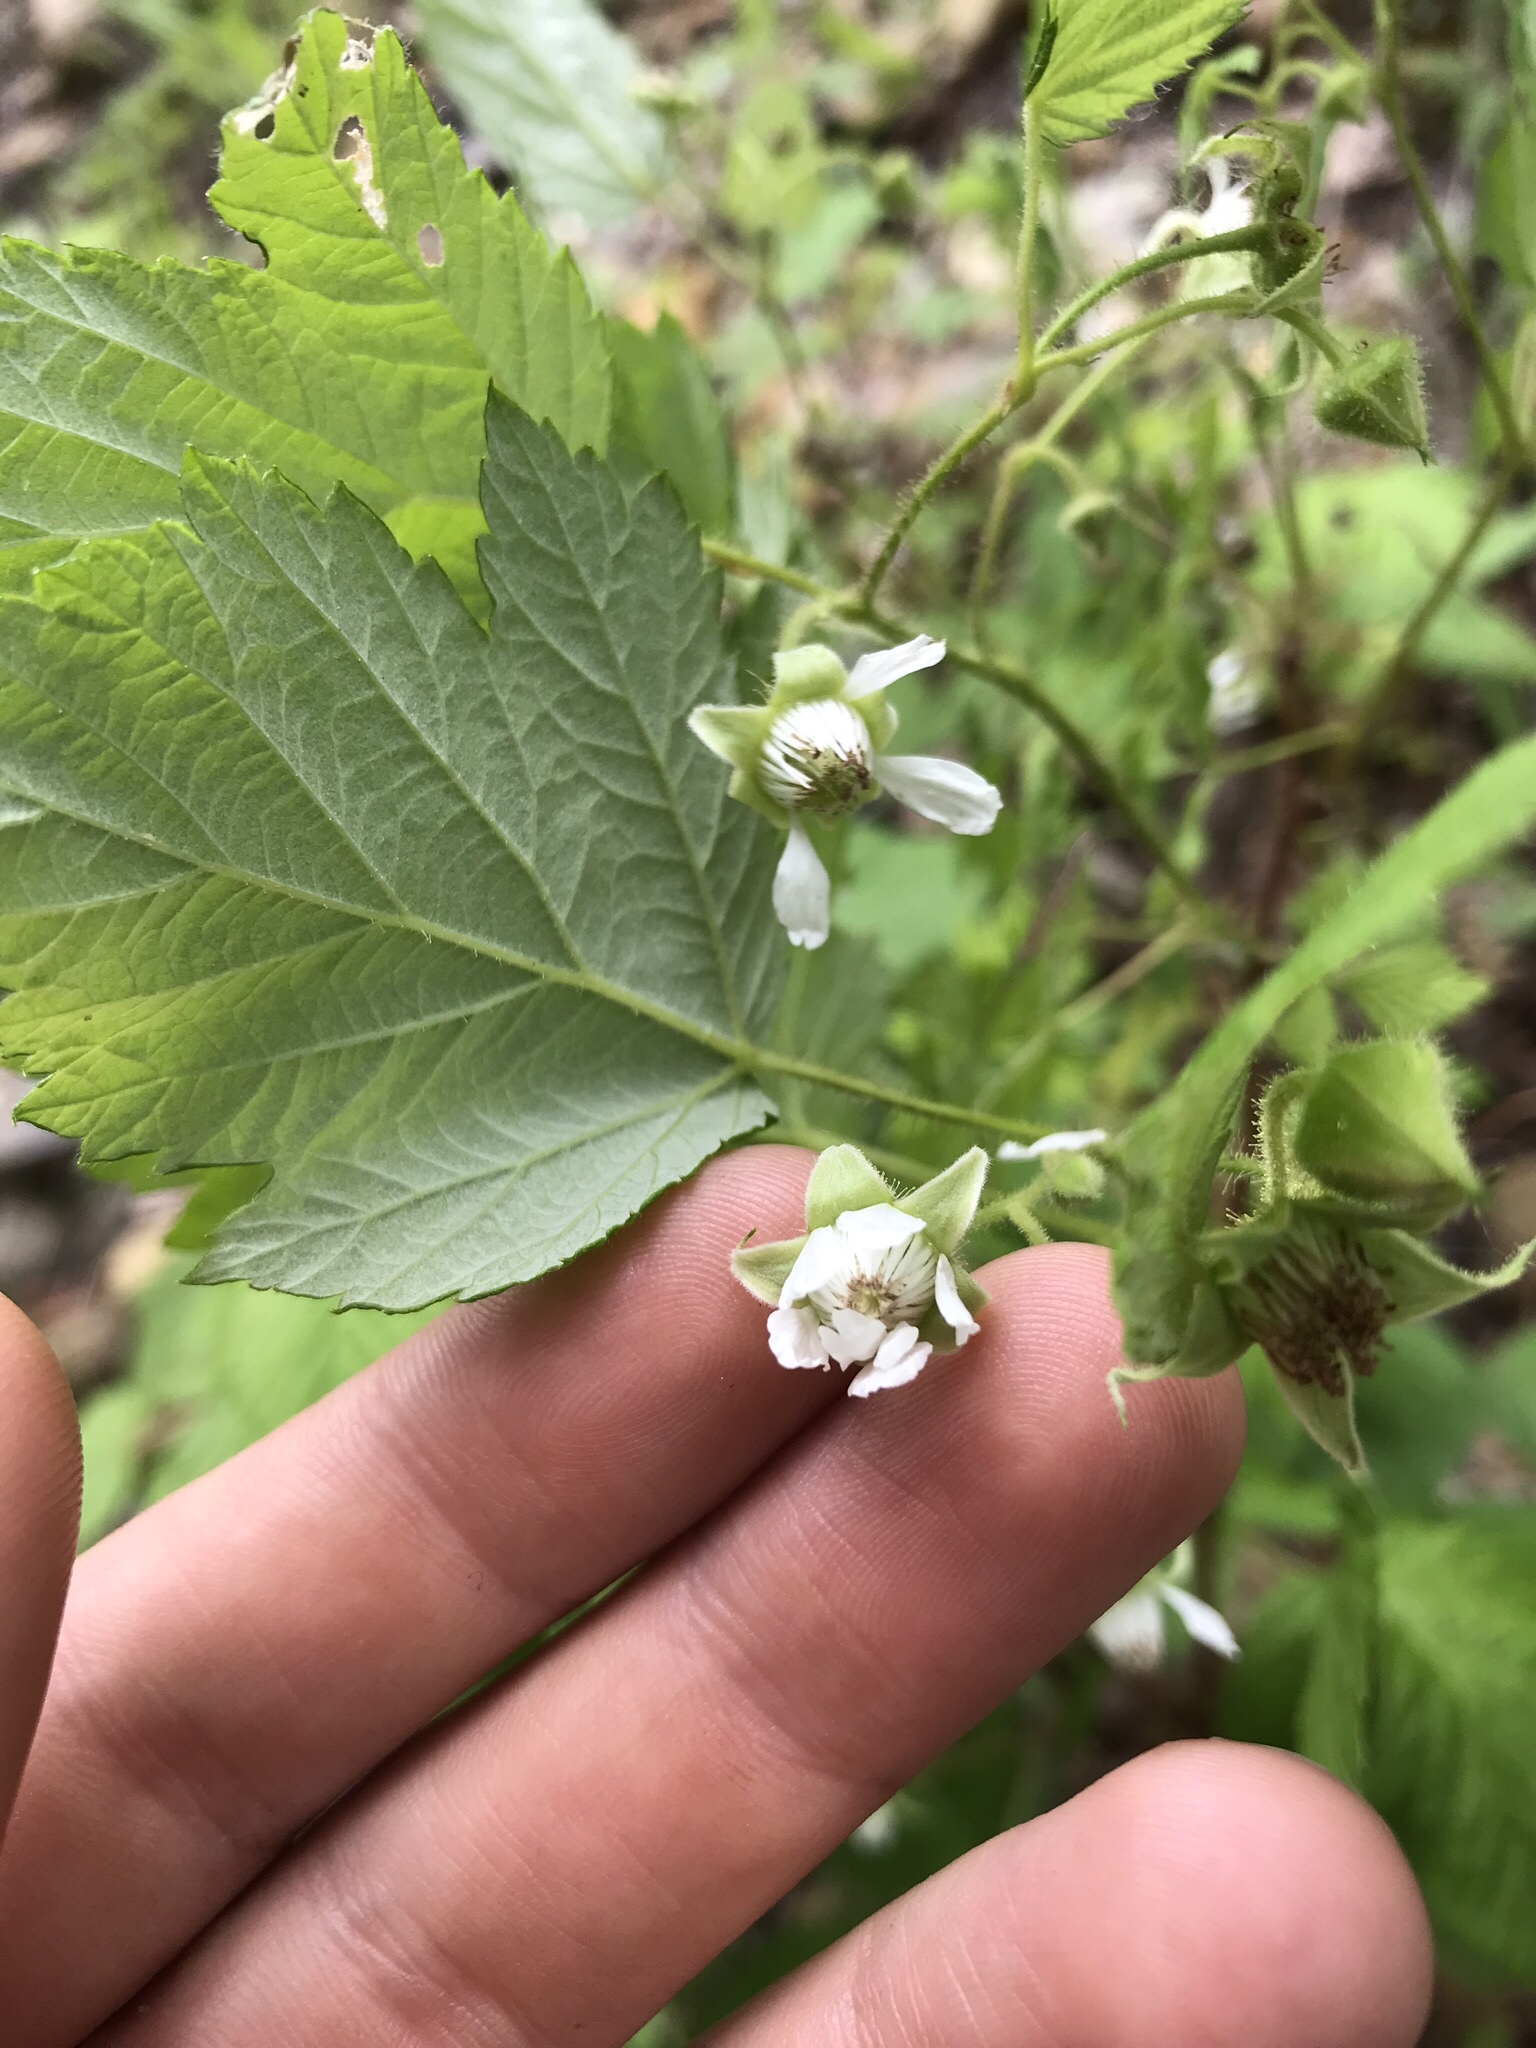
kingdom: Plantae
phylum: Tracheophyta
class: Magnoliopsida
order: Rosales
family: Rosaceae
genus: Rubus
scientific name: Rubus idaeus
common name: Raspberry
